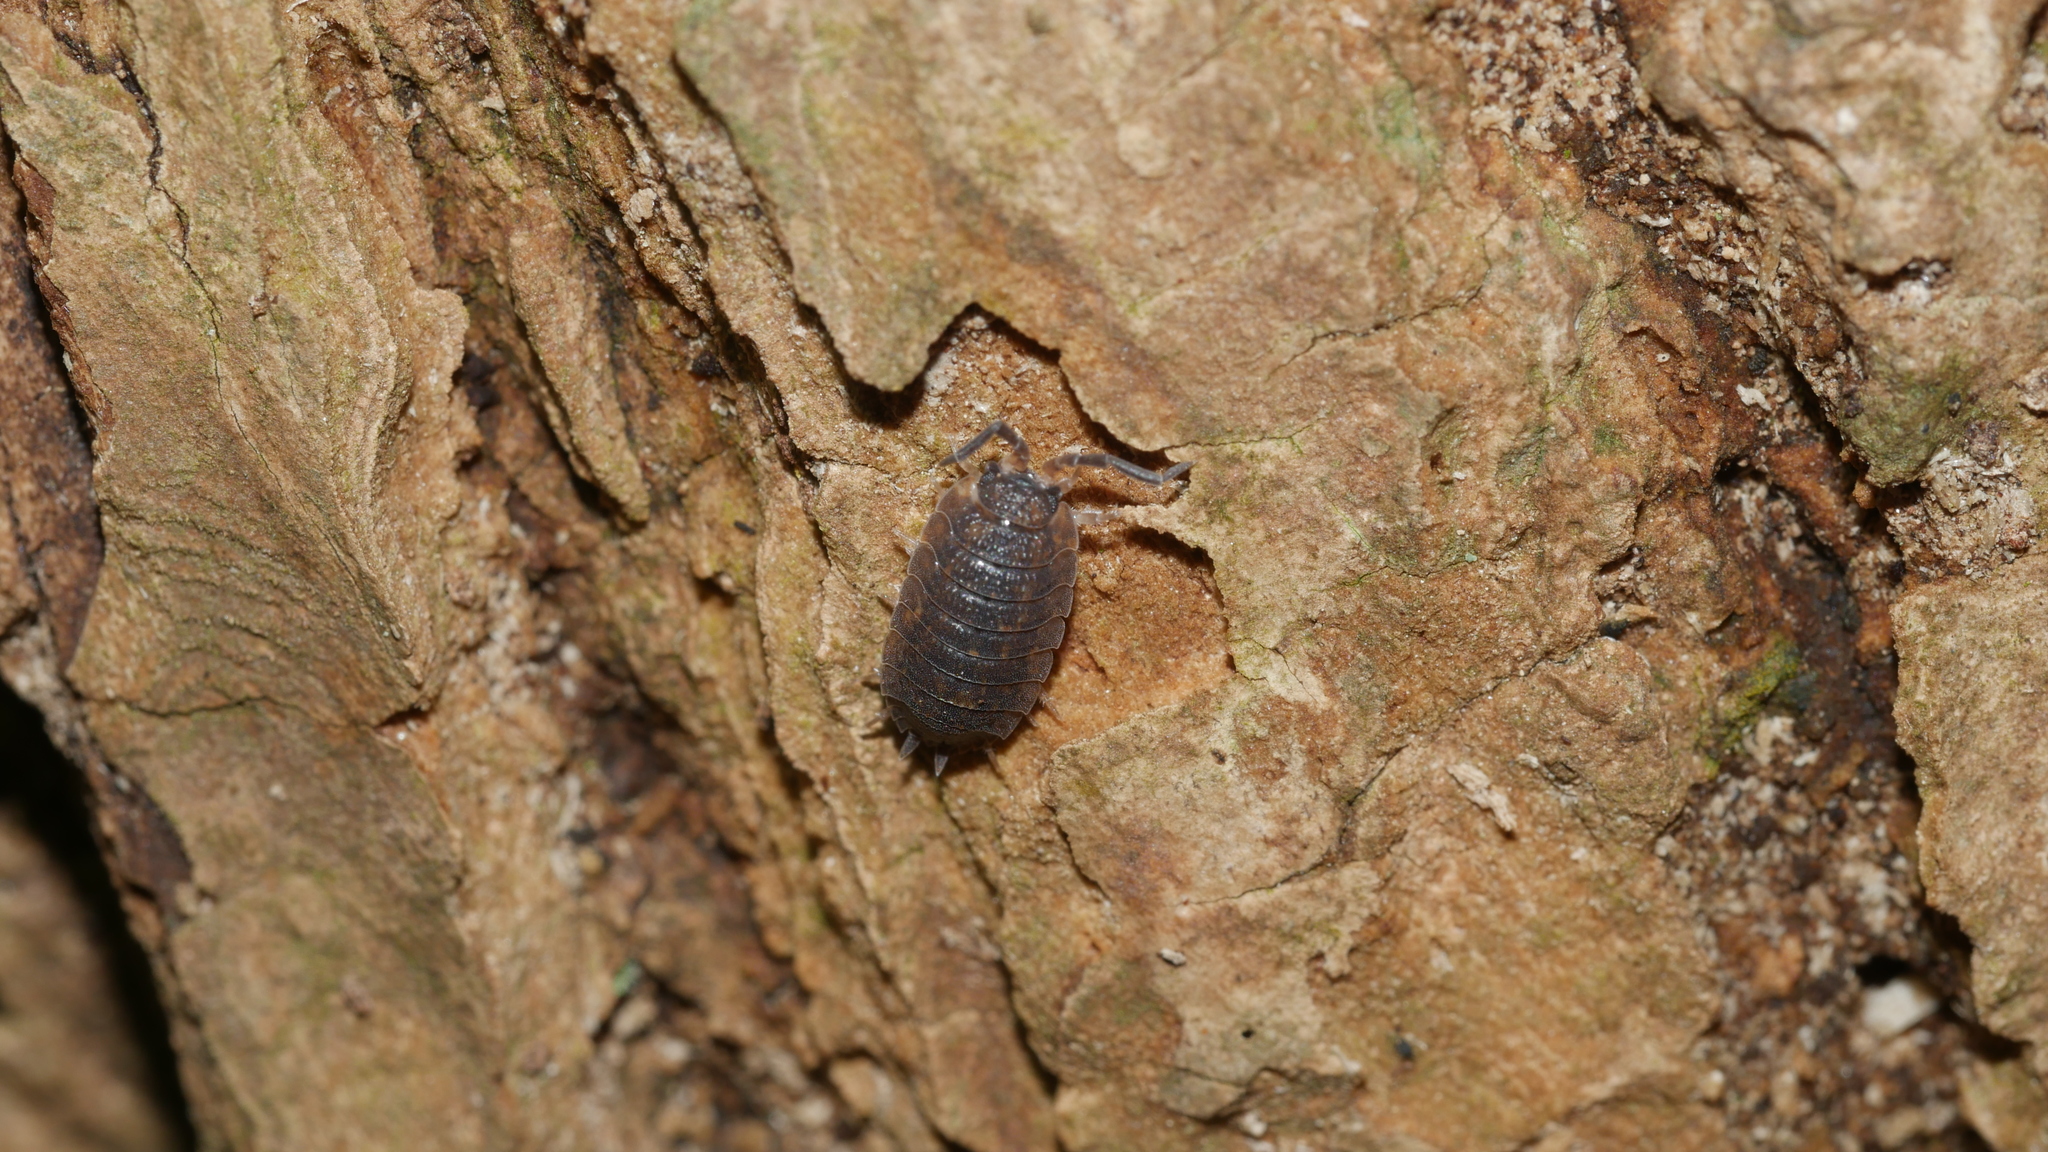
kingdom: Animalia
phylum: Arthropoda
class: Malacostraca
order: Isopoda
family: Porcellionidae
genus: Porcellio
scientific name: Porcellio scaber
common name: Common rough woodlouse
